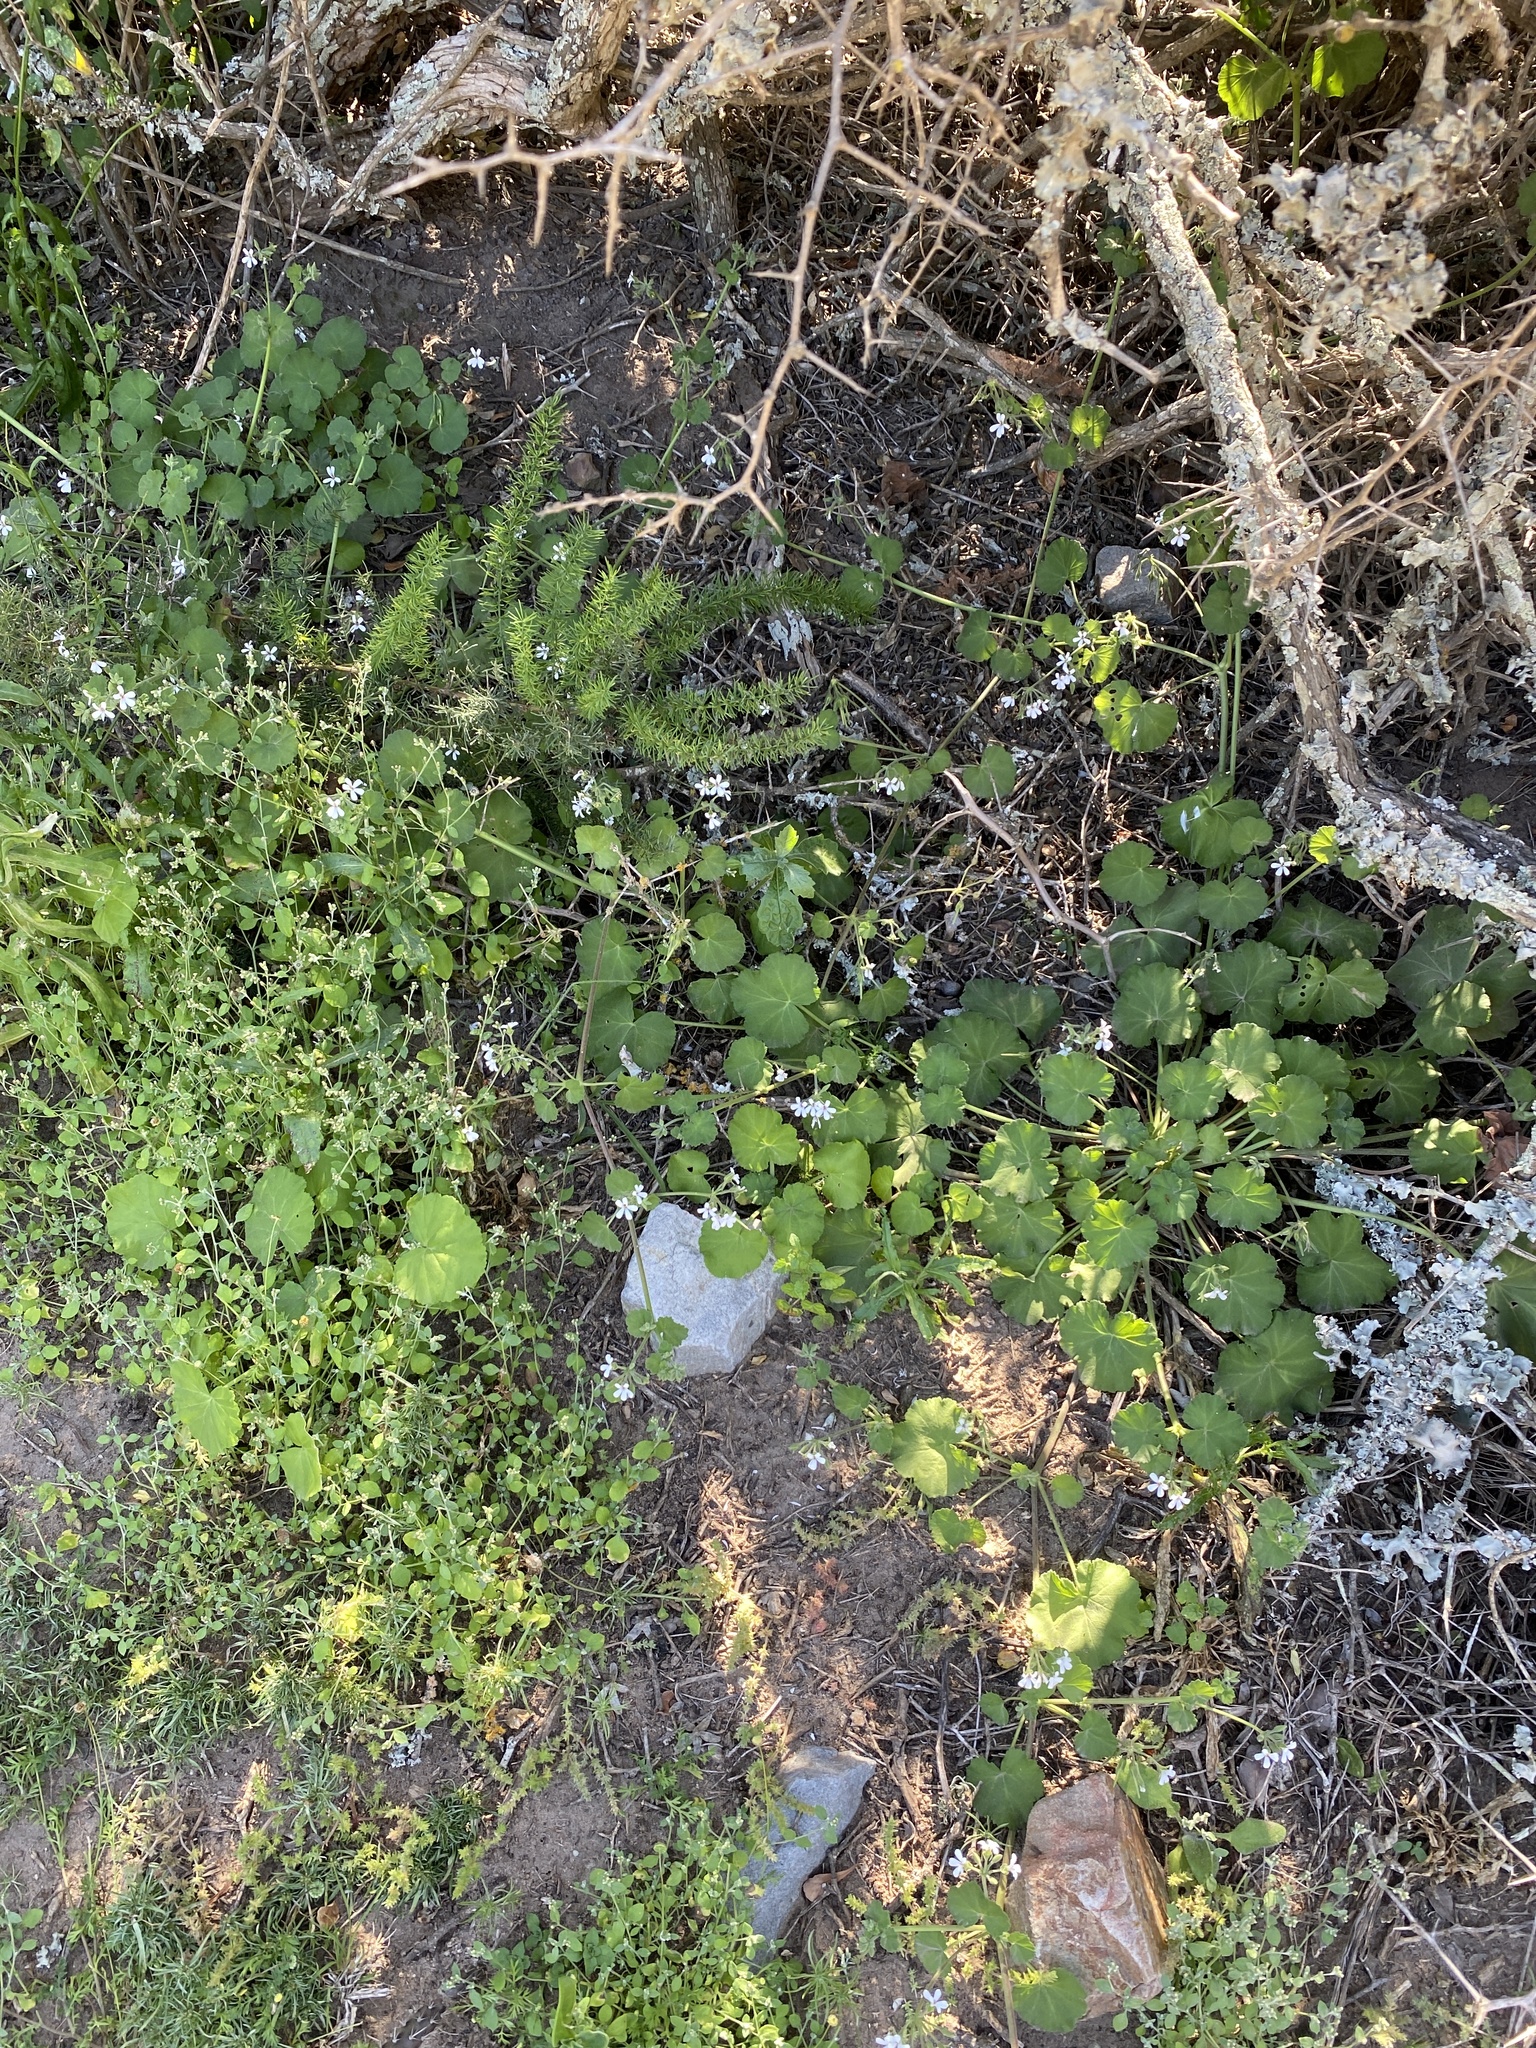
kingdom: Plantae
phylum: Tracheophyta
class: Magnoliopsida
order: Geraniales
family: Geraniaceae
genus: Pelargonium
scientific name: Pelargonium odoratissimum
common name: Apple geranium
